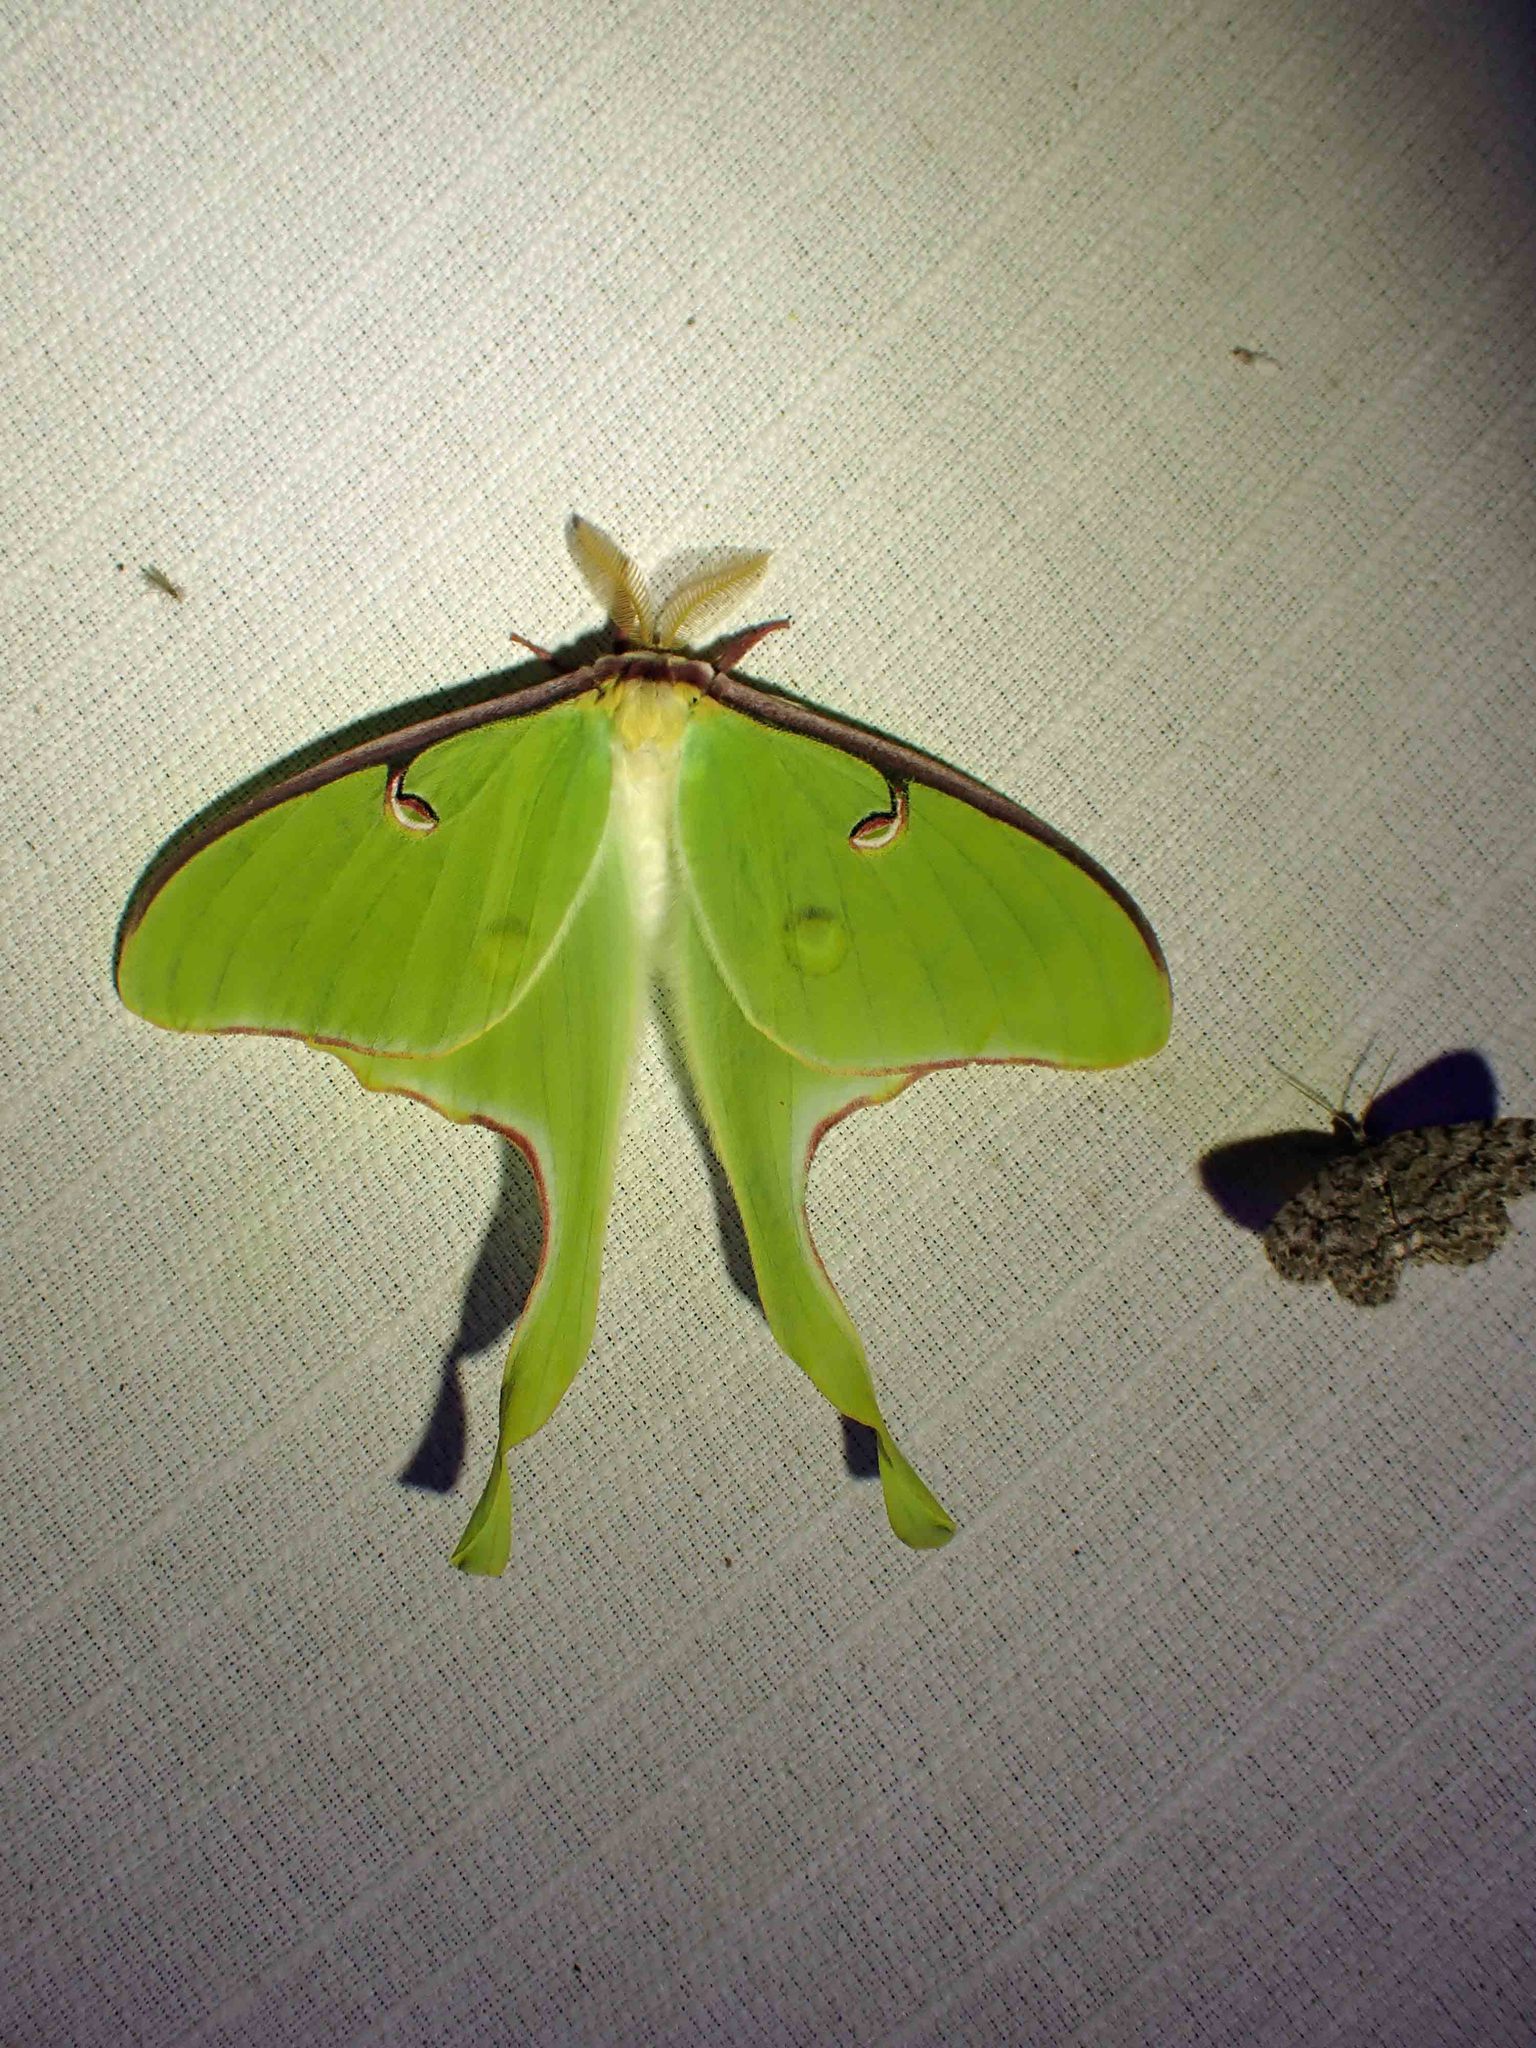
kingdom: Animalia
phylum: Arthropoda
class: Insecta
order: Lepidoptera
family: Saturniidae
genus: Actias
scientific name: Actias luna
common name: Luna moth
